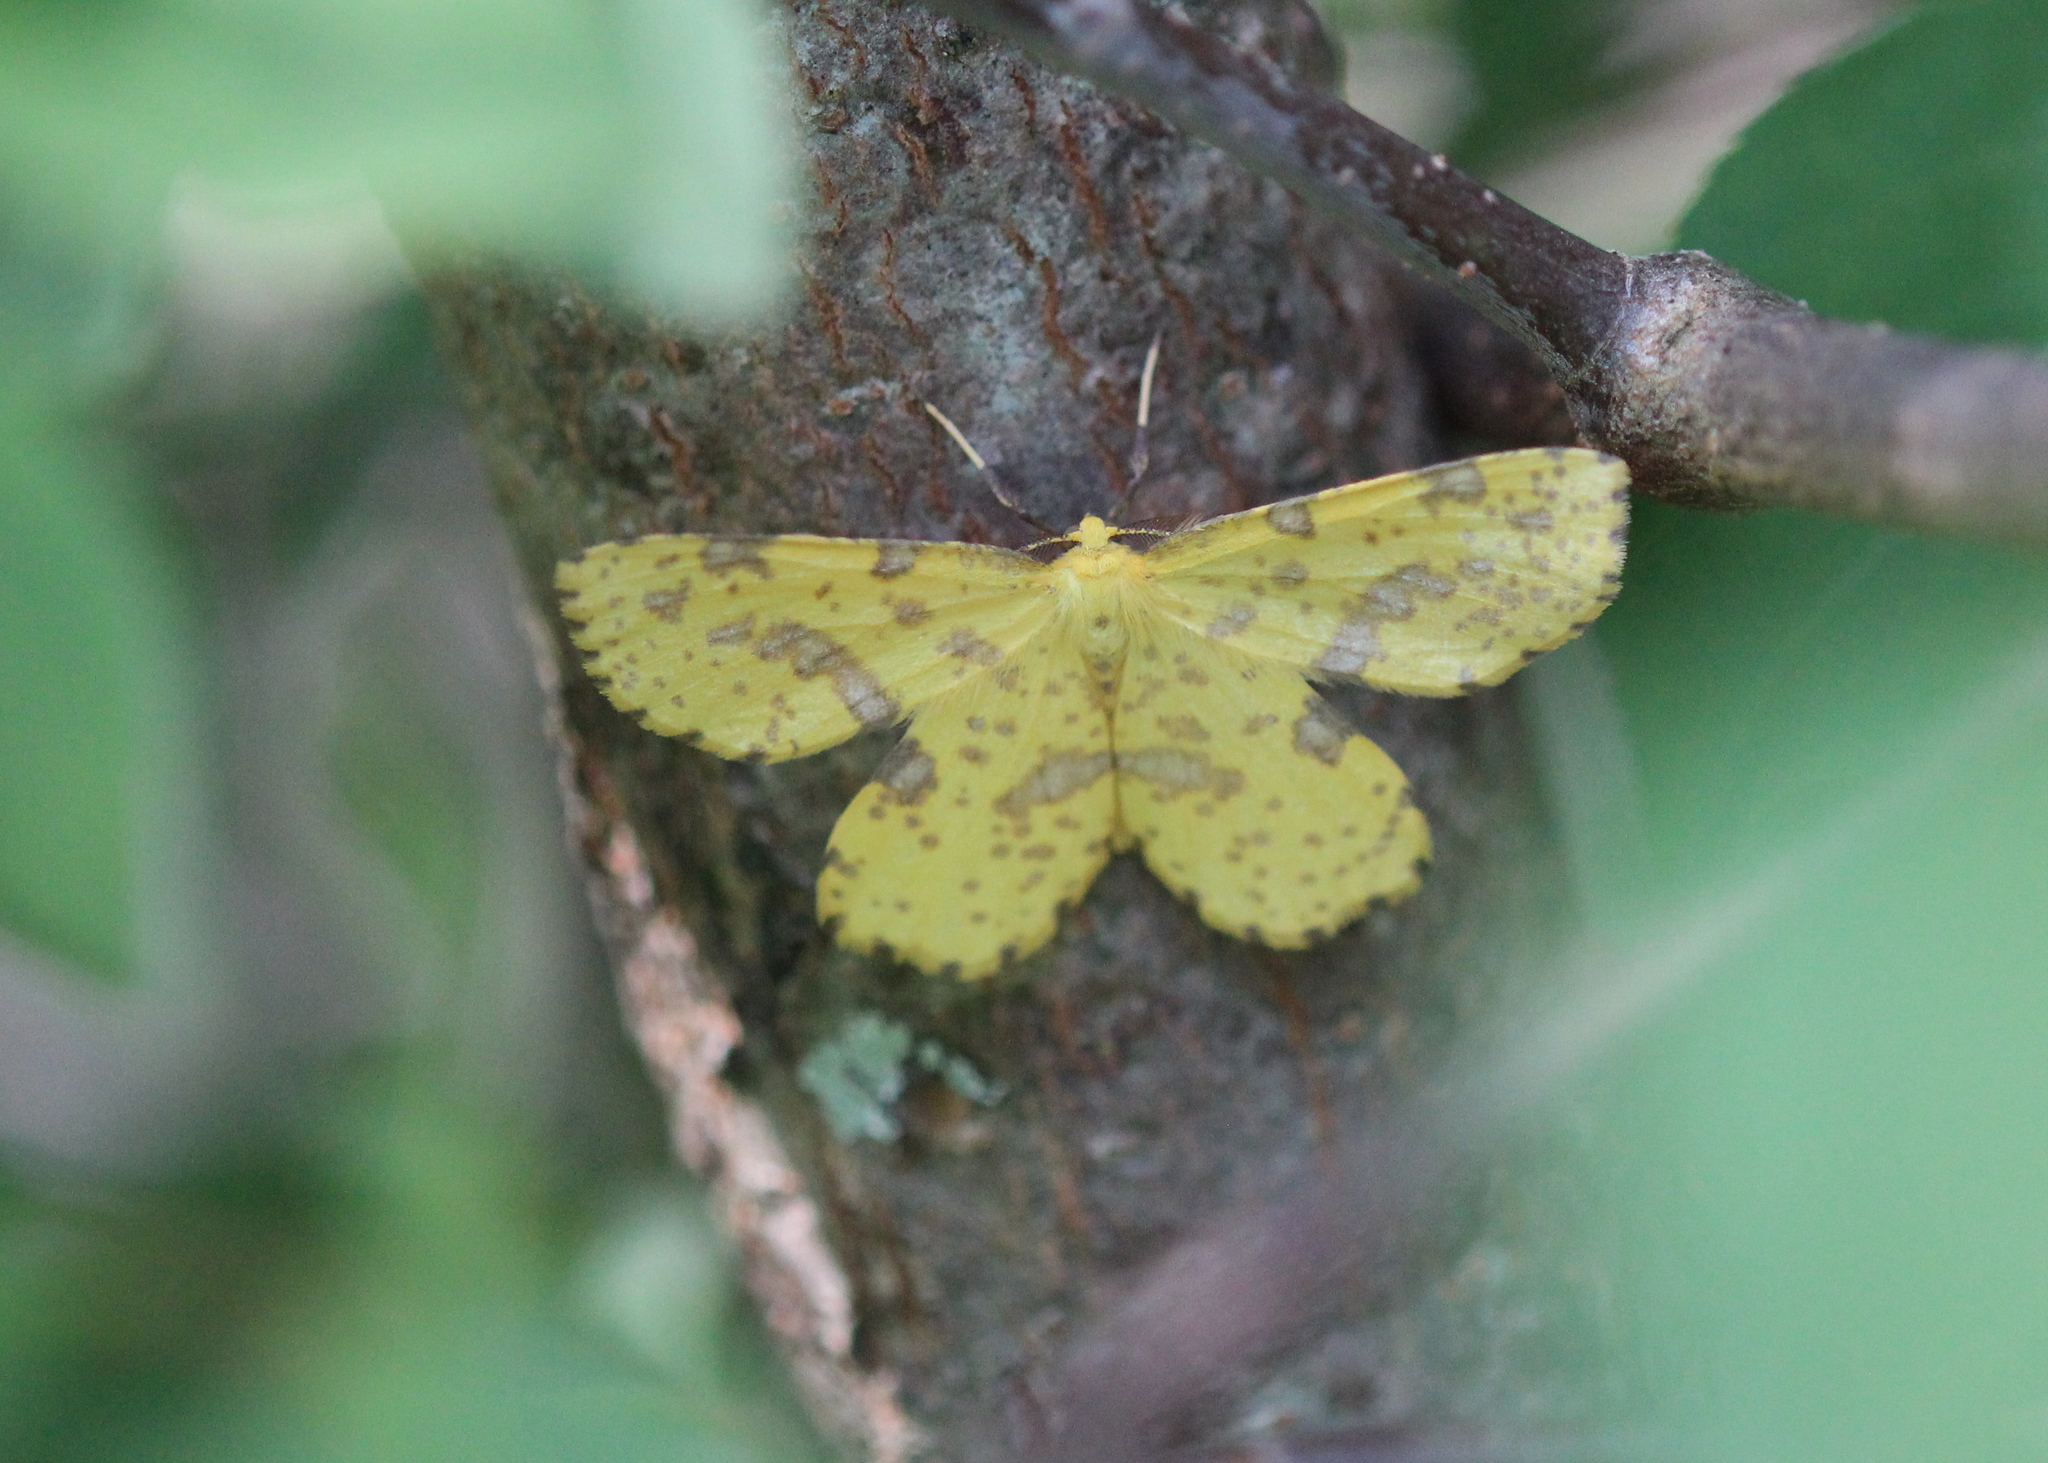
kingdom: Animalia
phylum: Arthropoda
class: Insecta
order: Lepidoptera
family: Geometridae
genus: Xanthotype
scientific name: Xanthotype
